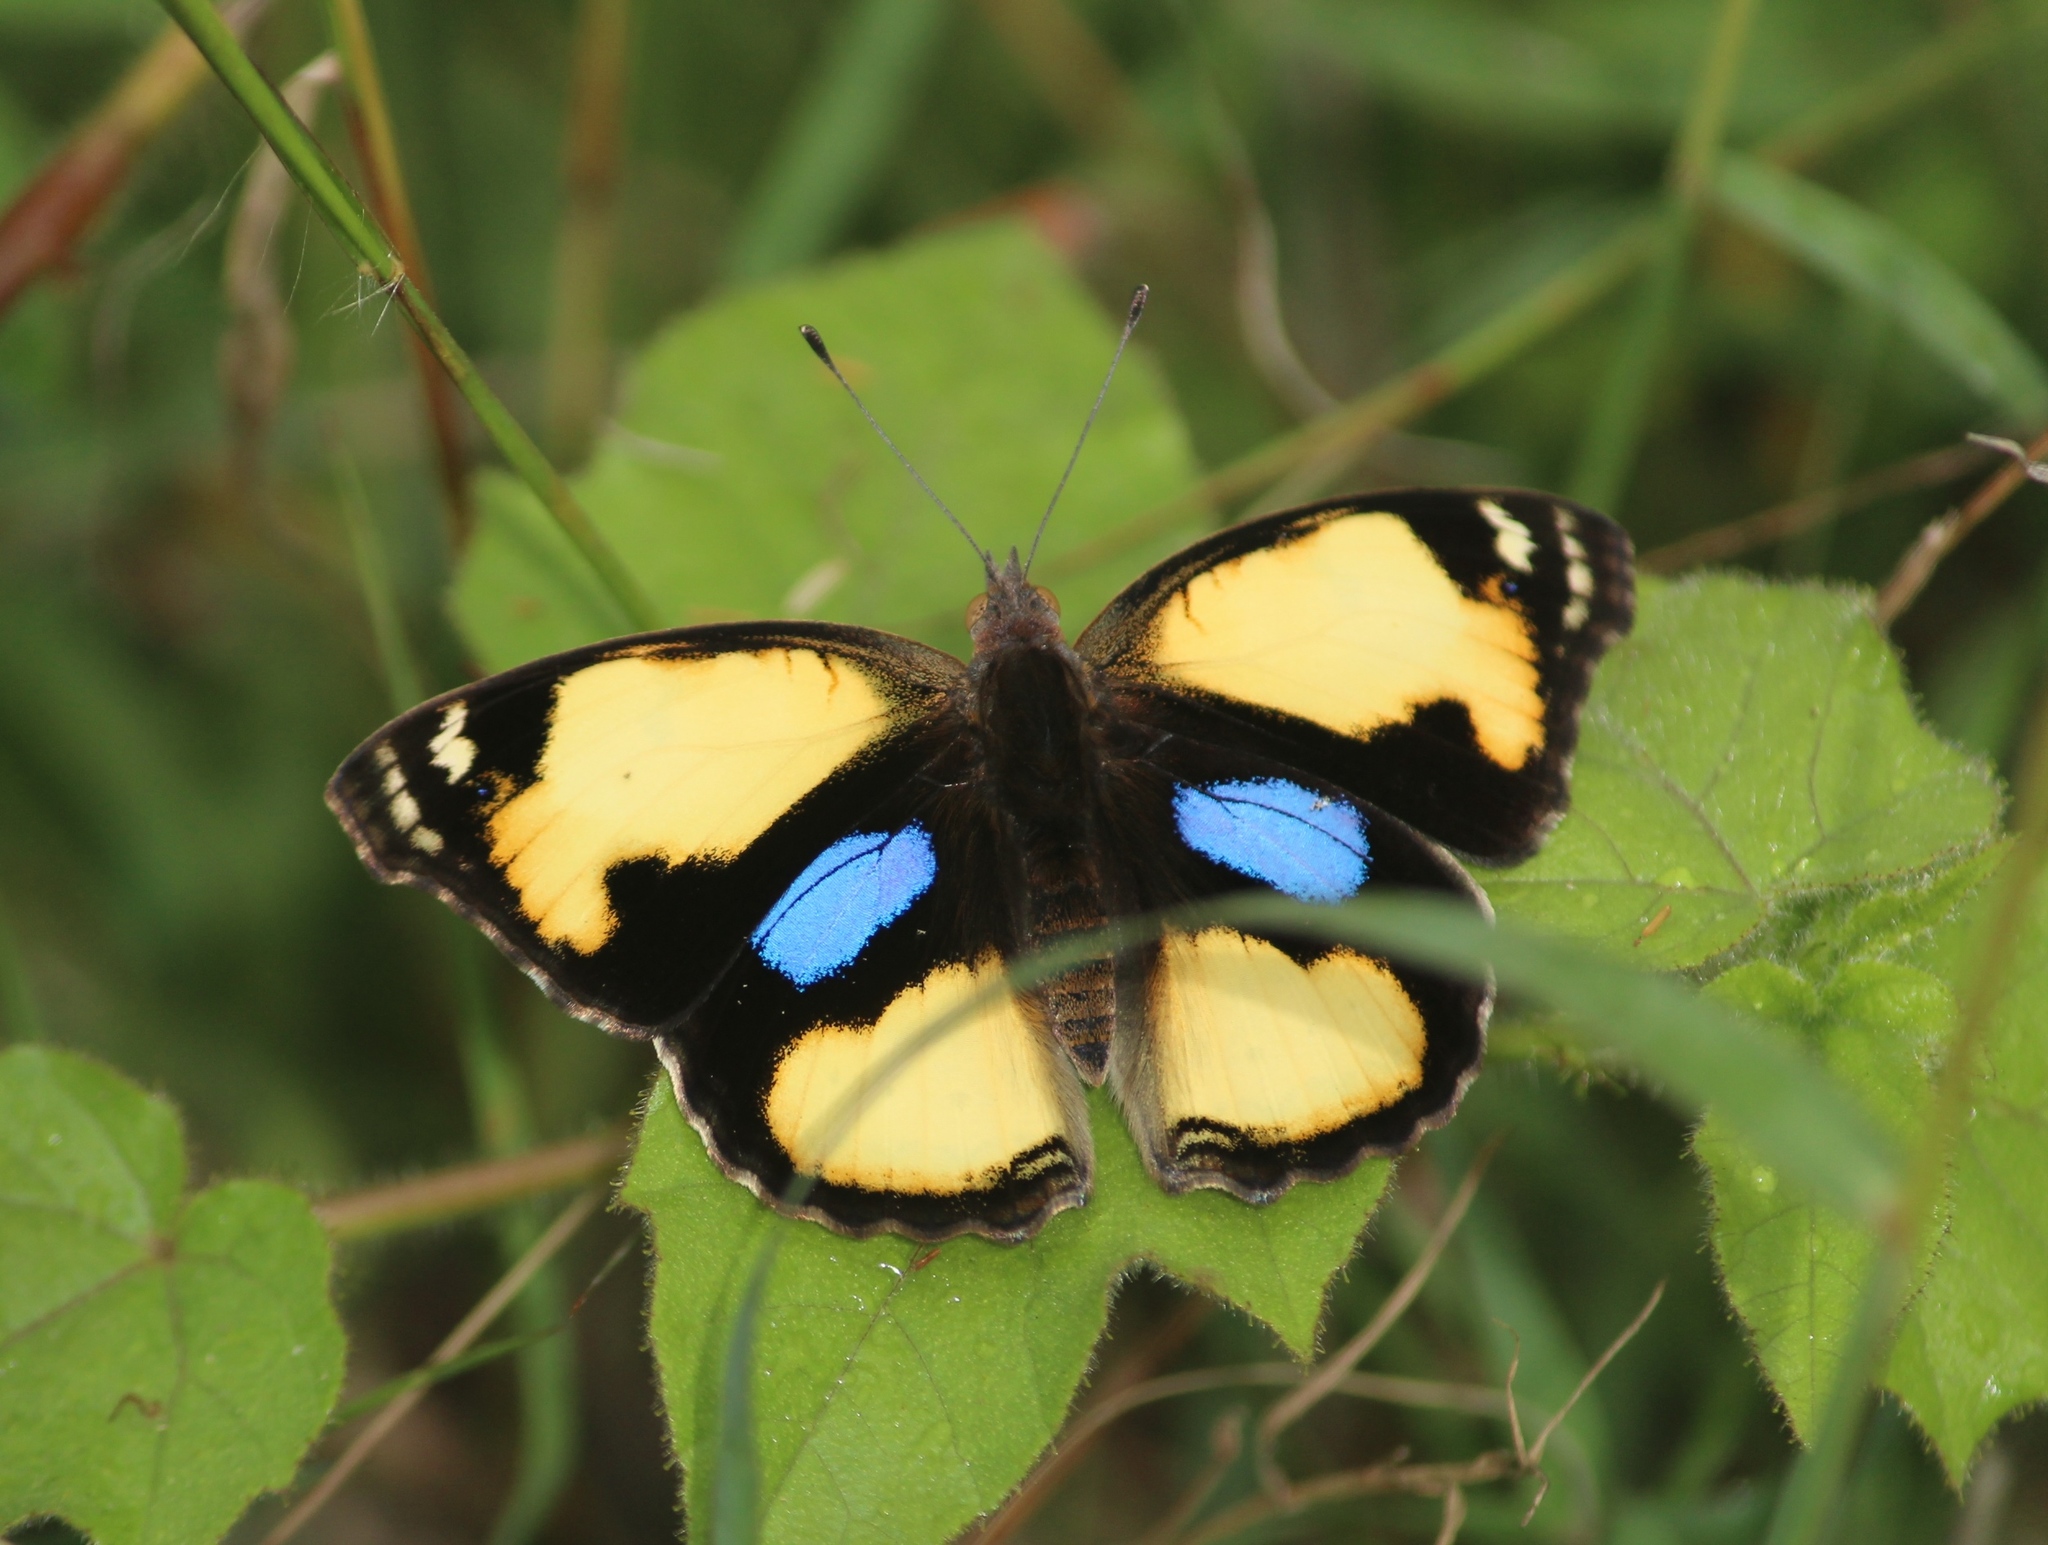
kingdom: Animalia
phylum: Arthropoda
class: Insecta
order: Lepidoptera
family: Nymphalidae
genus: Junonia
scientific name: Junonia hierta
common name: Yellow pansy
